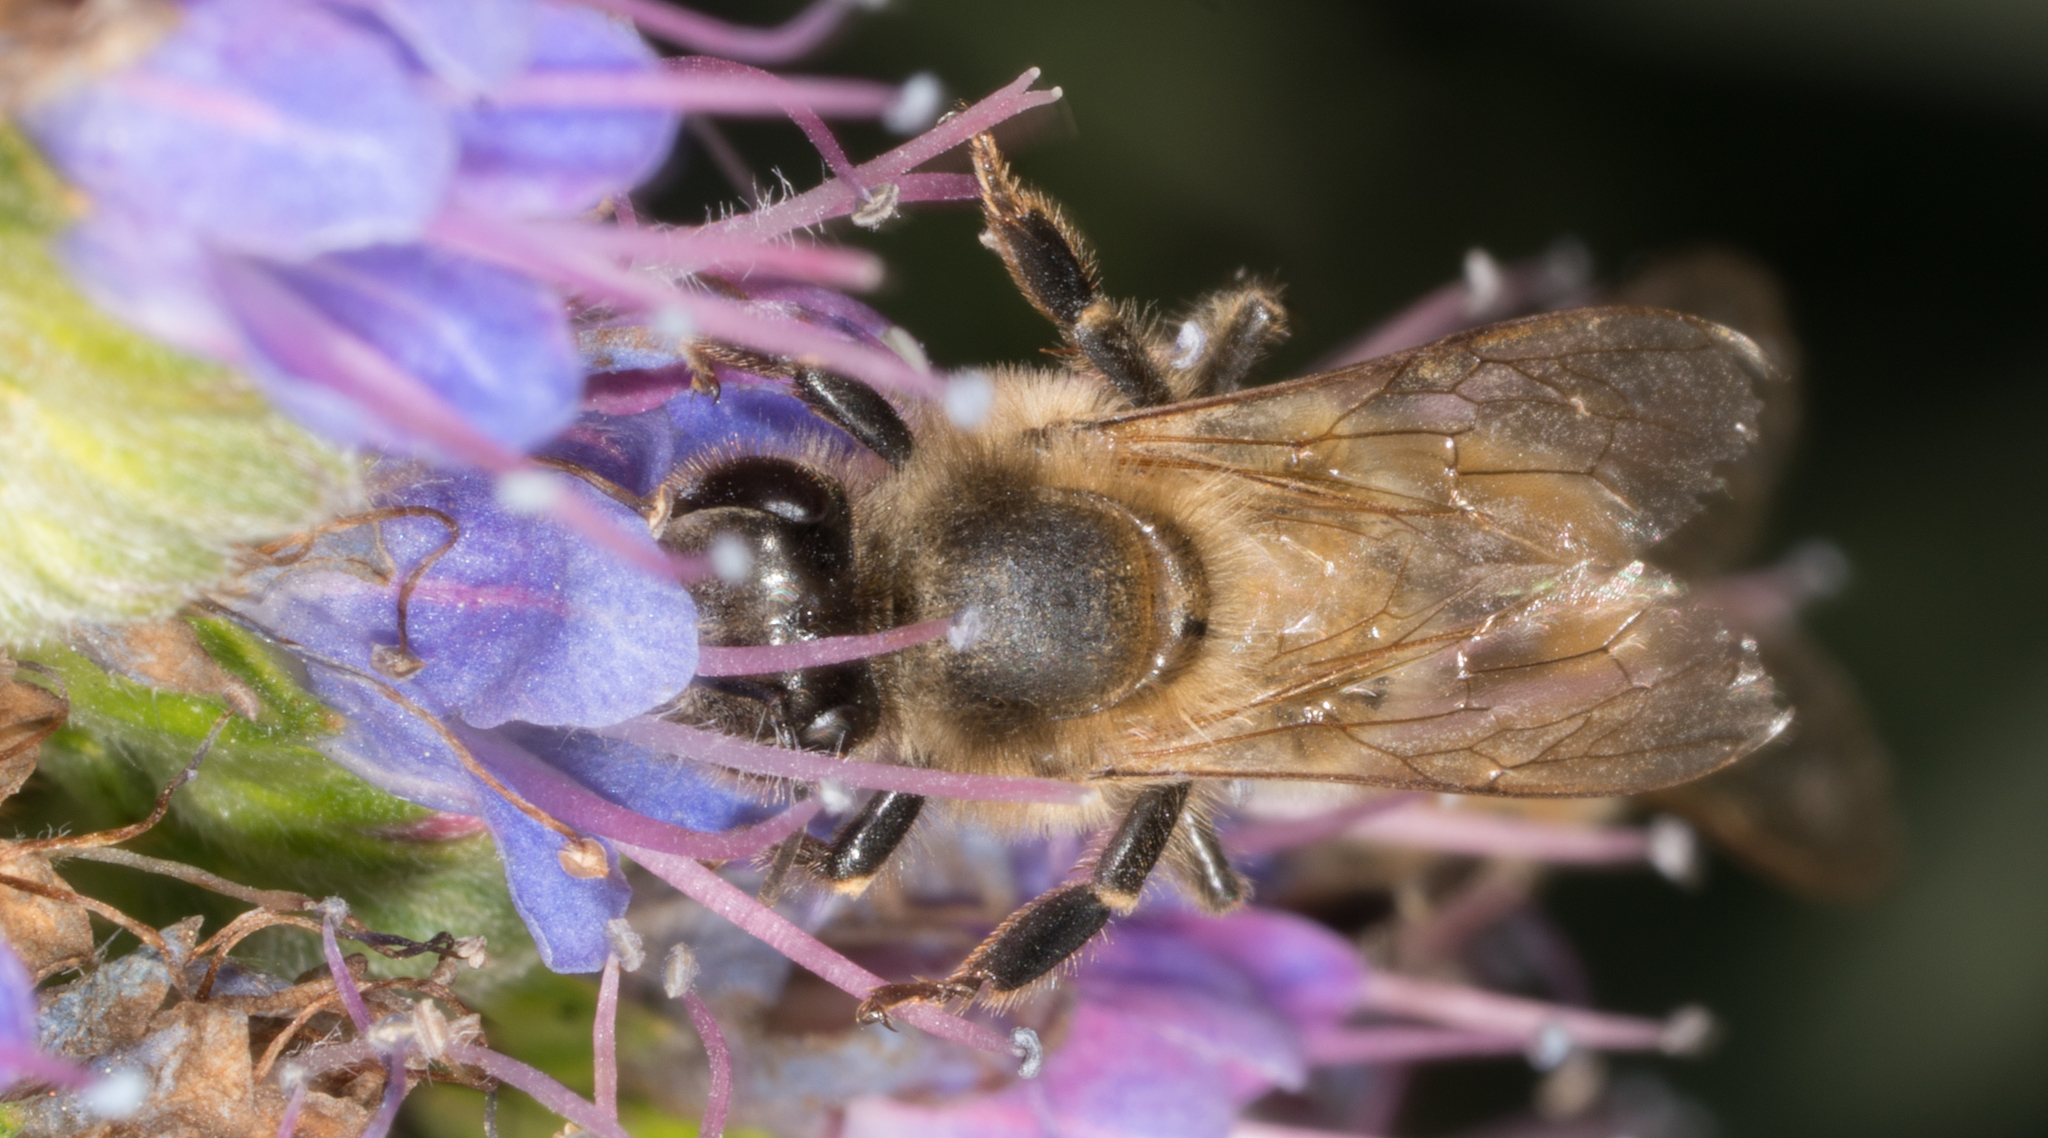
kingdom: Animalia
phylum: Arthropoda
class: Insecta
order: Hymenoptera
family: Apidae
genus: Apis
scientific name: Apis mellifera
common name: Honey bee
